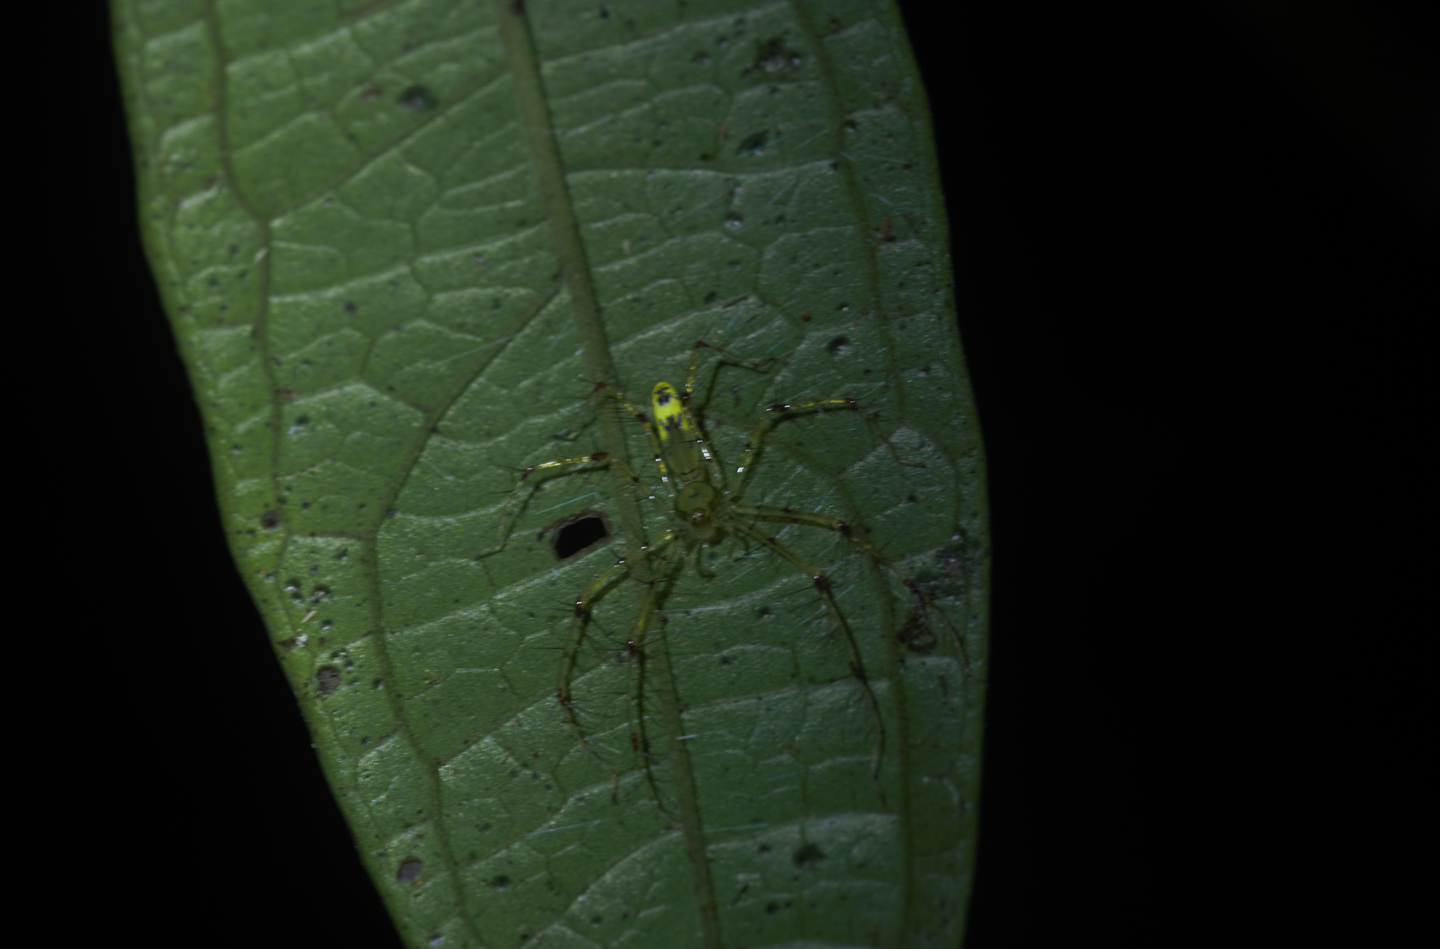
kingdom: Animalia
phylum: Arthropoda
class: Arachnida
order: Araneae
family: Oxyopidae
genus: Schaenicoscelis
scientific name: Schaenicoscelis
